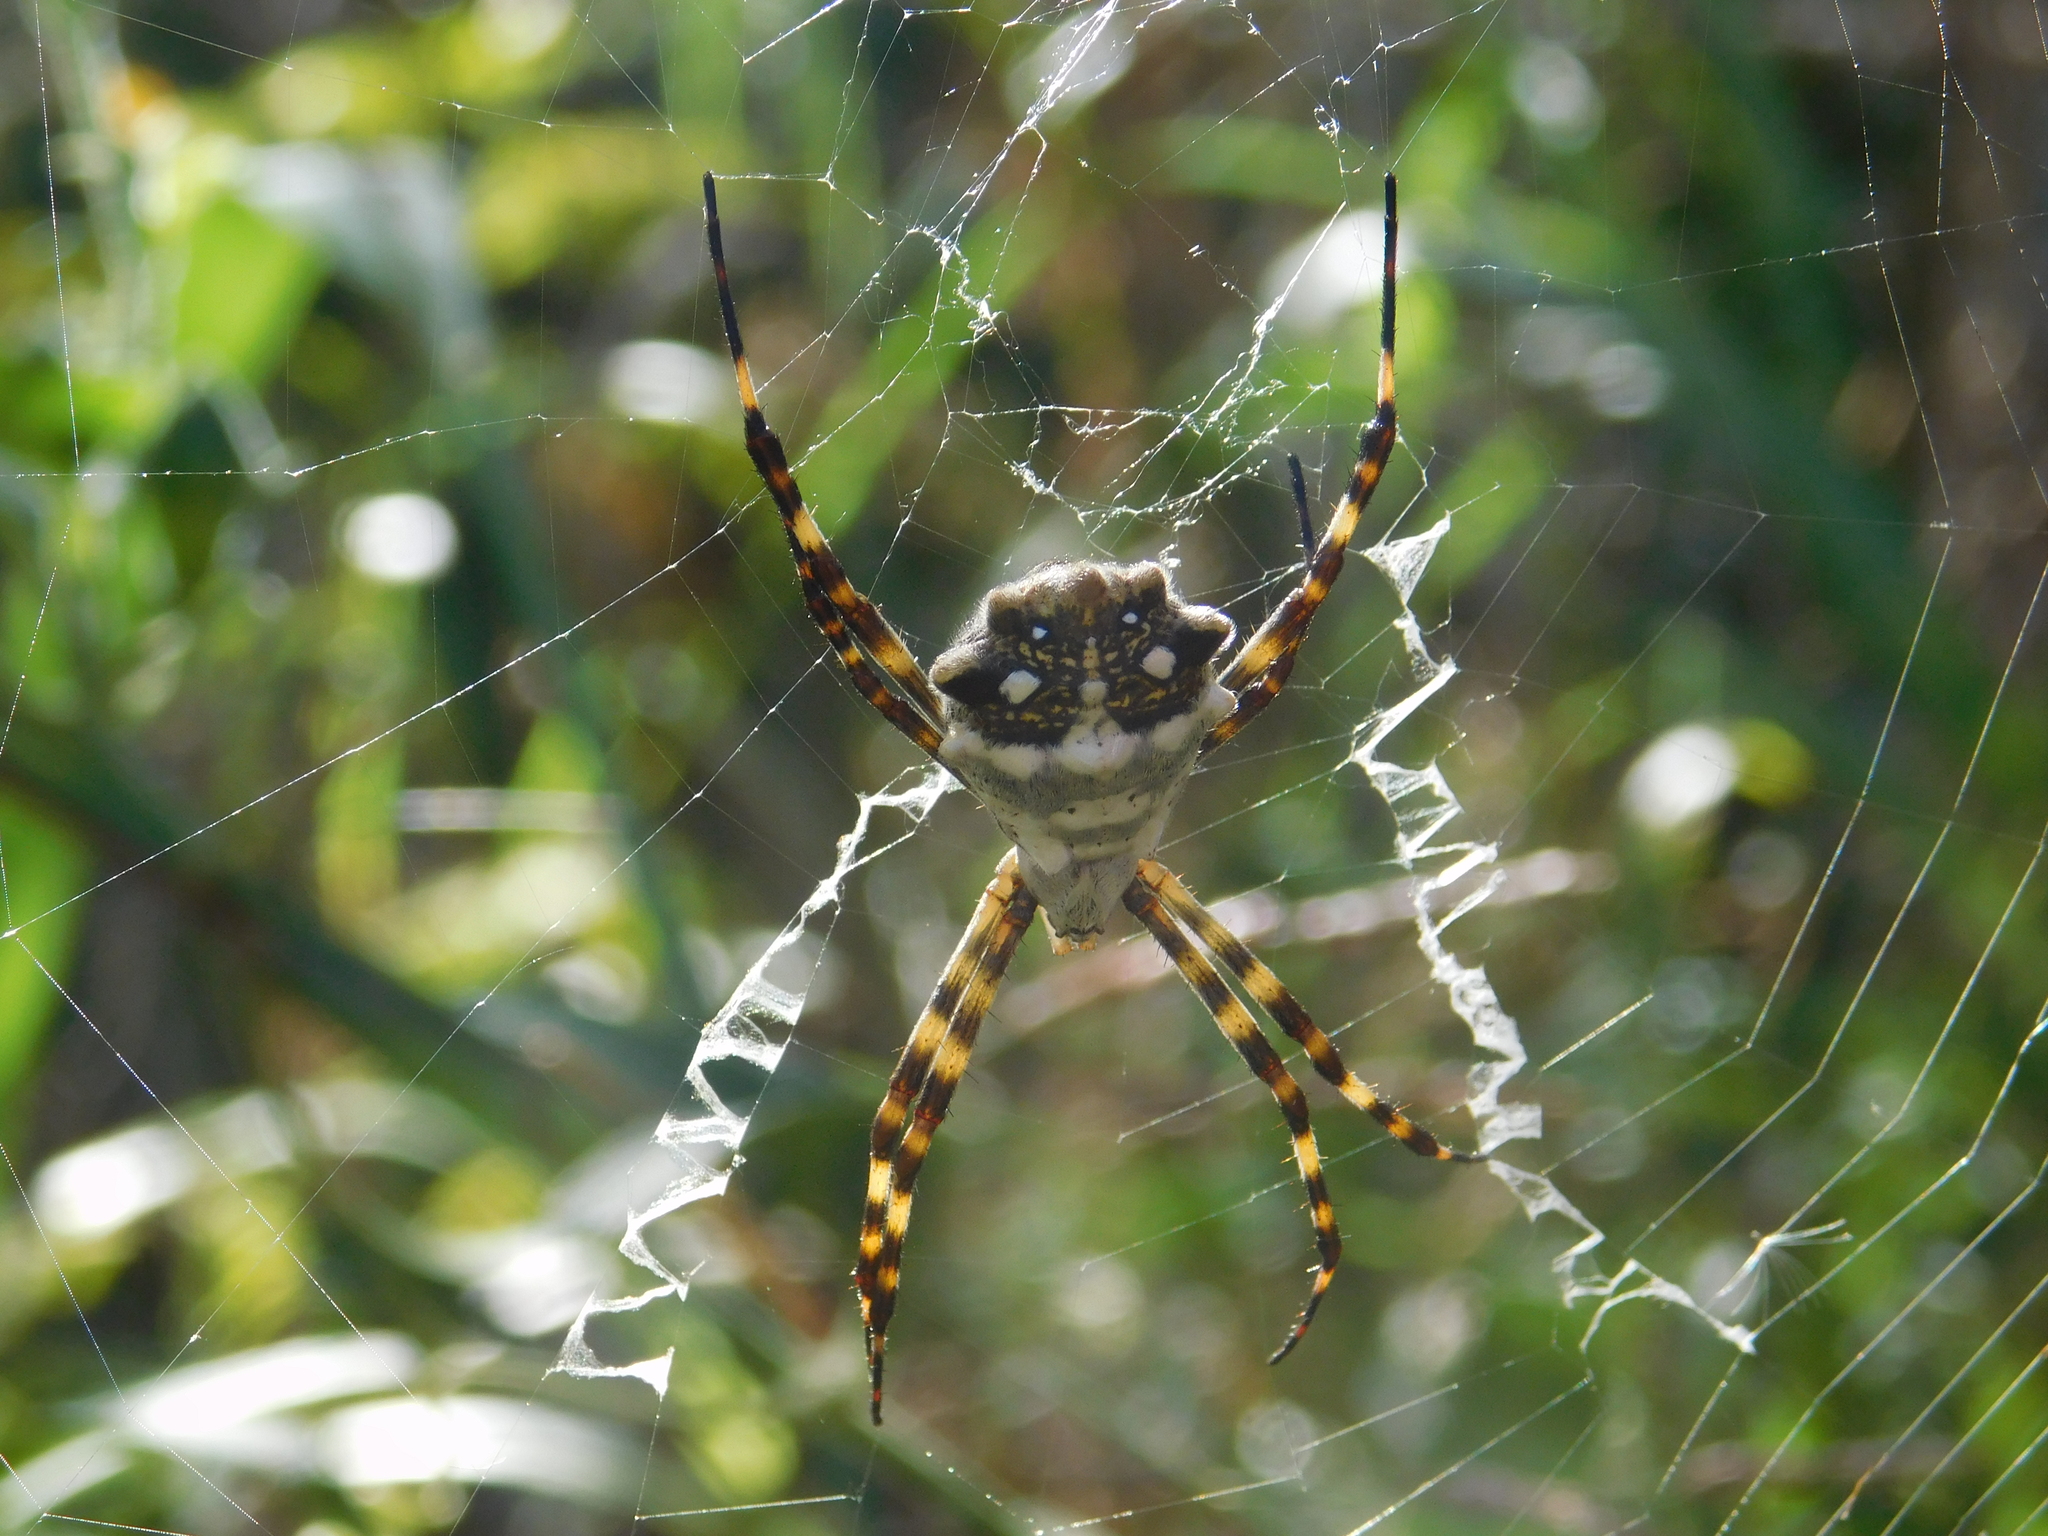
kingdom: Animalia
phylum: Arthropoda
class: Arachnida
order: Araneae
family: Araneidae
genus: Argiope
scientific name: Argiope argentata
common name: Orb weavers
